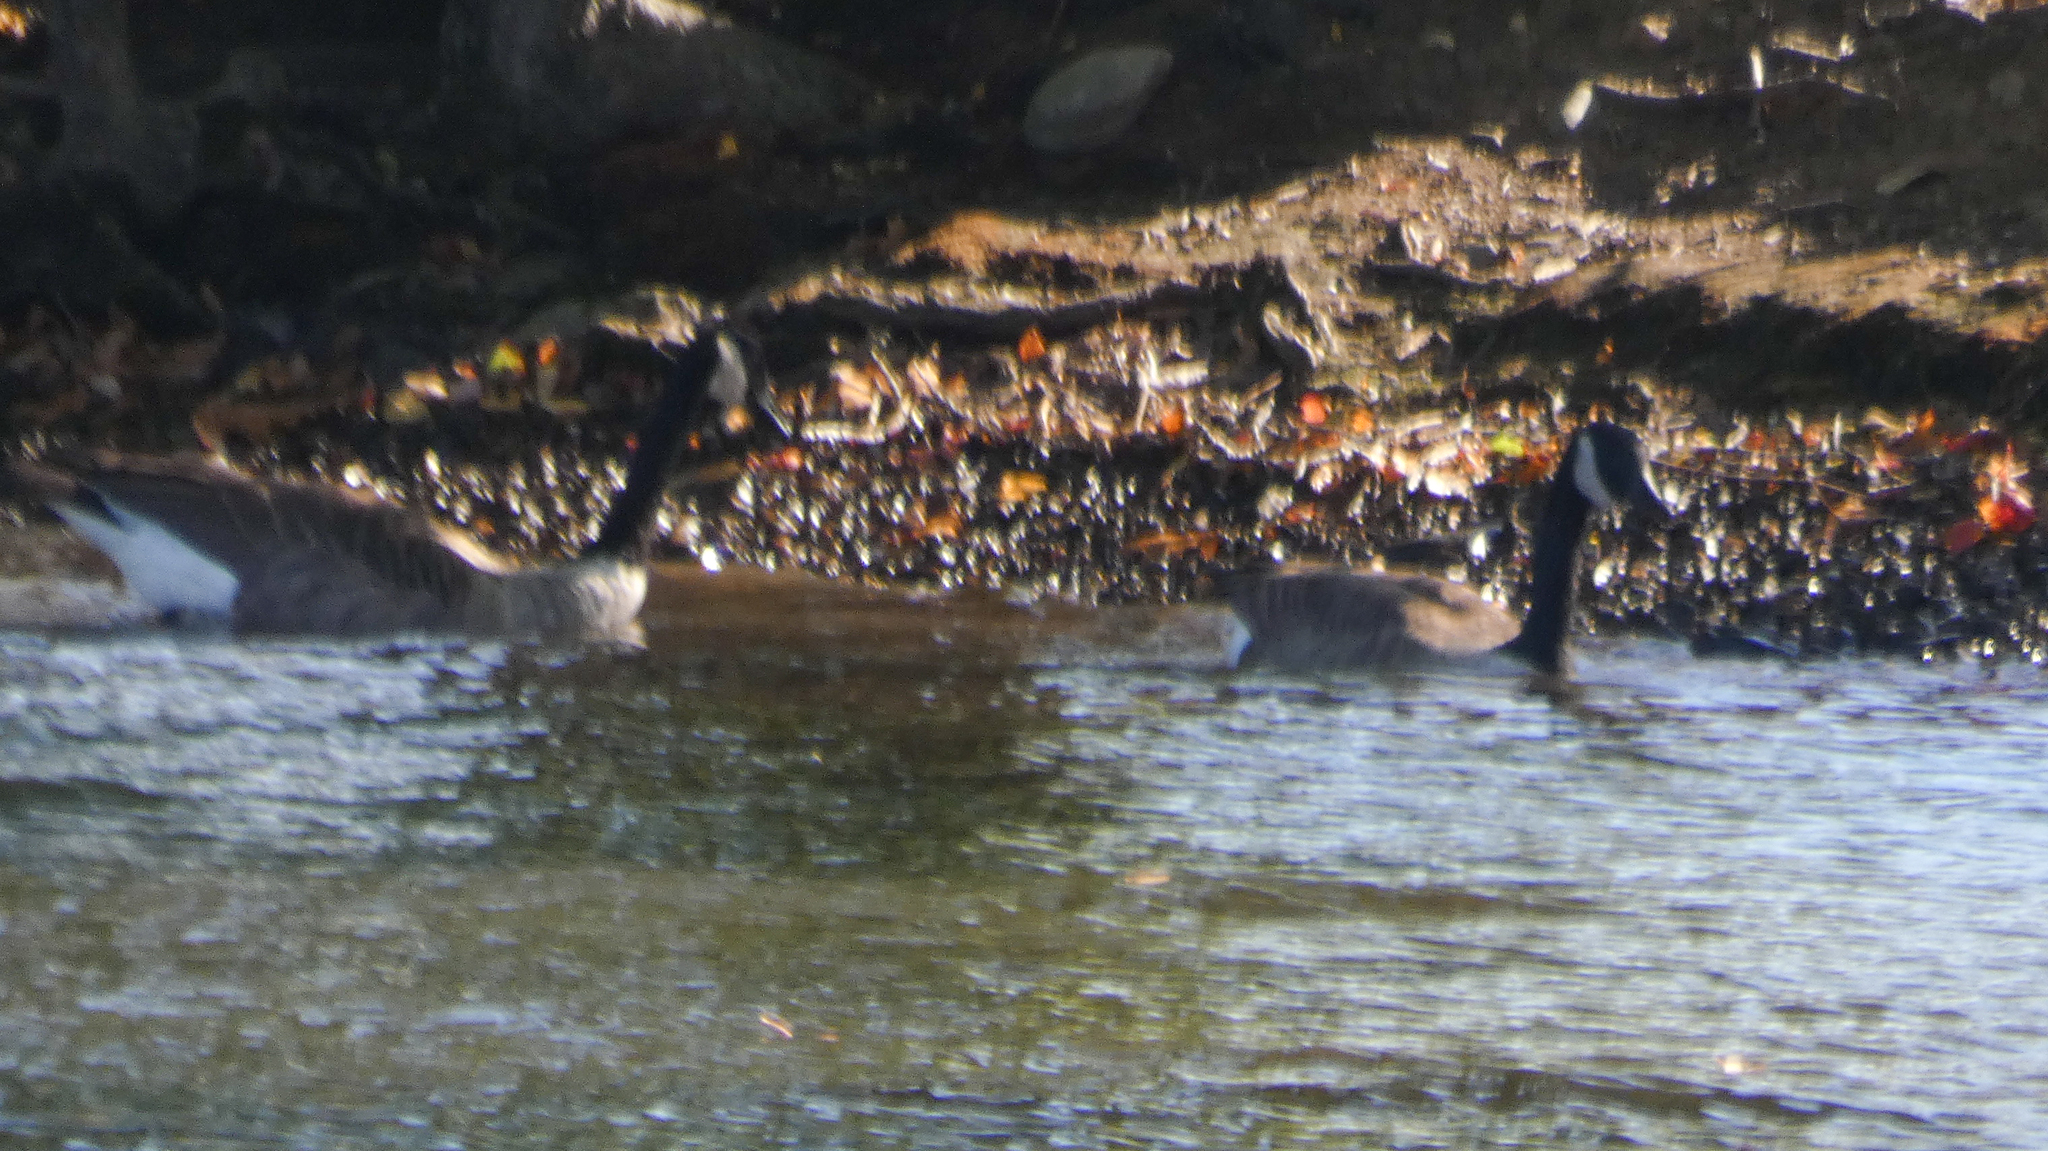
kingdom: Animalia
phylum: Chordata
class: Aves
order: Anseriformes
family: Anatidae
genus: Branta
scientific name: Branta canadensis
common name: Canada goose
